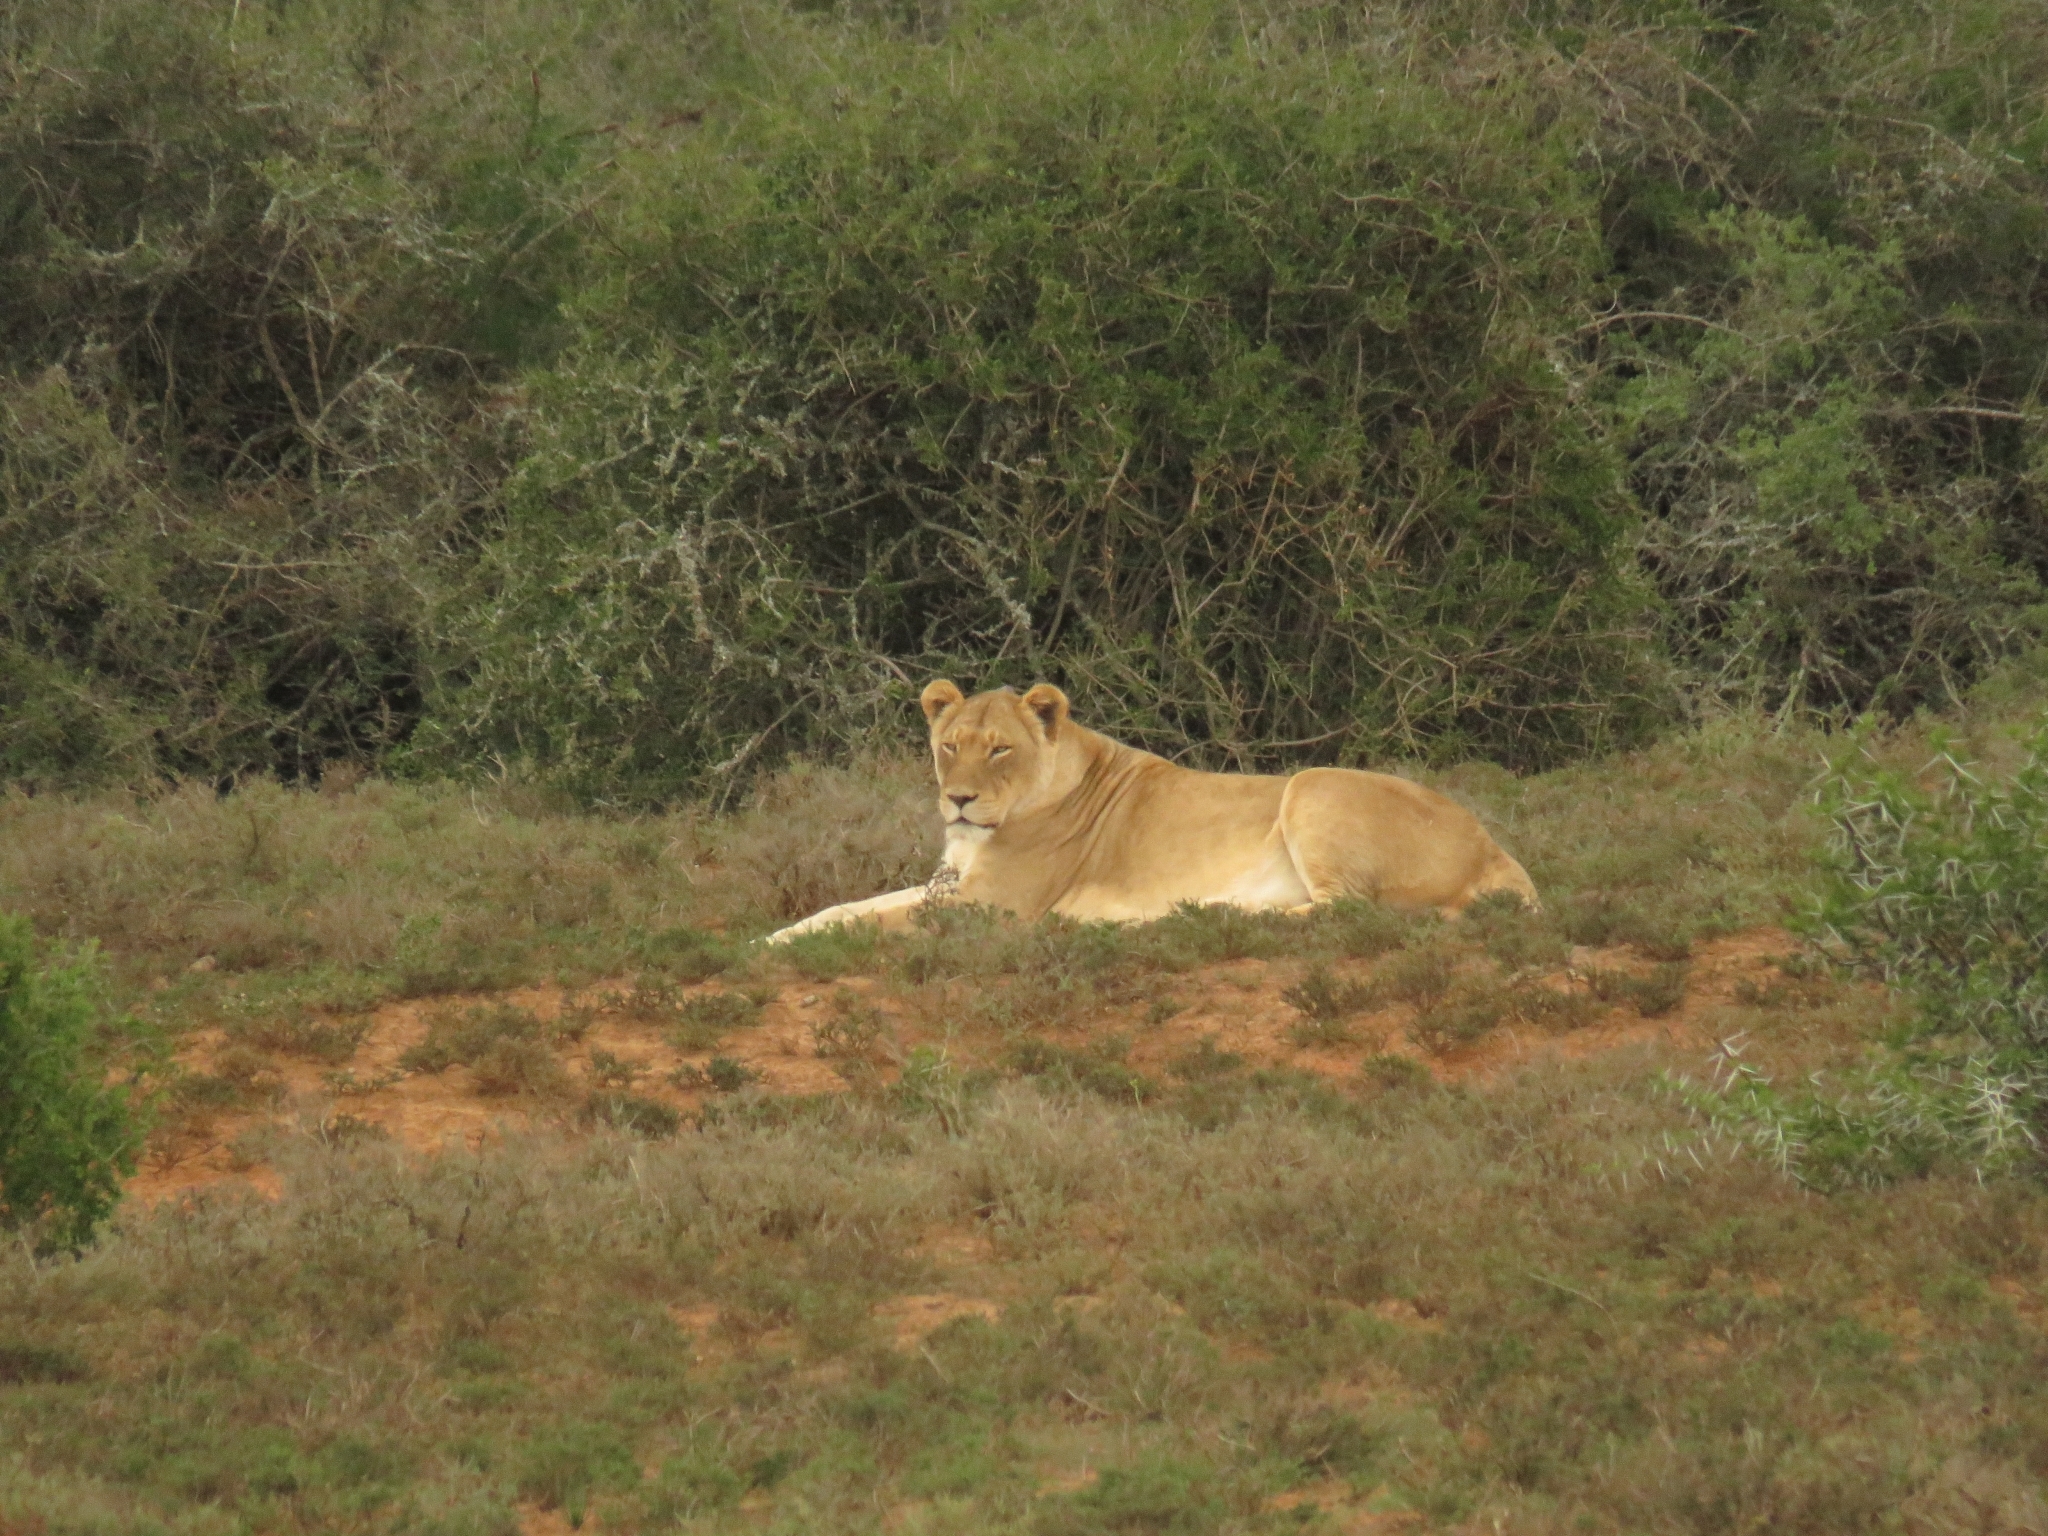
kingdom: Animalia
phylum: Chordata
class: Mammalia
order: Carnivora
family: Felidae
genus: Panthera
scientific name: Panthera leo
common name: Lion
